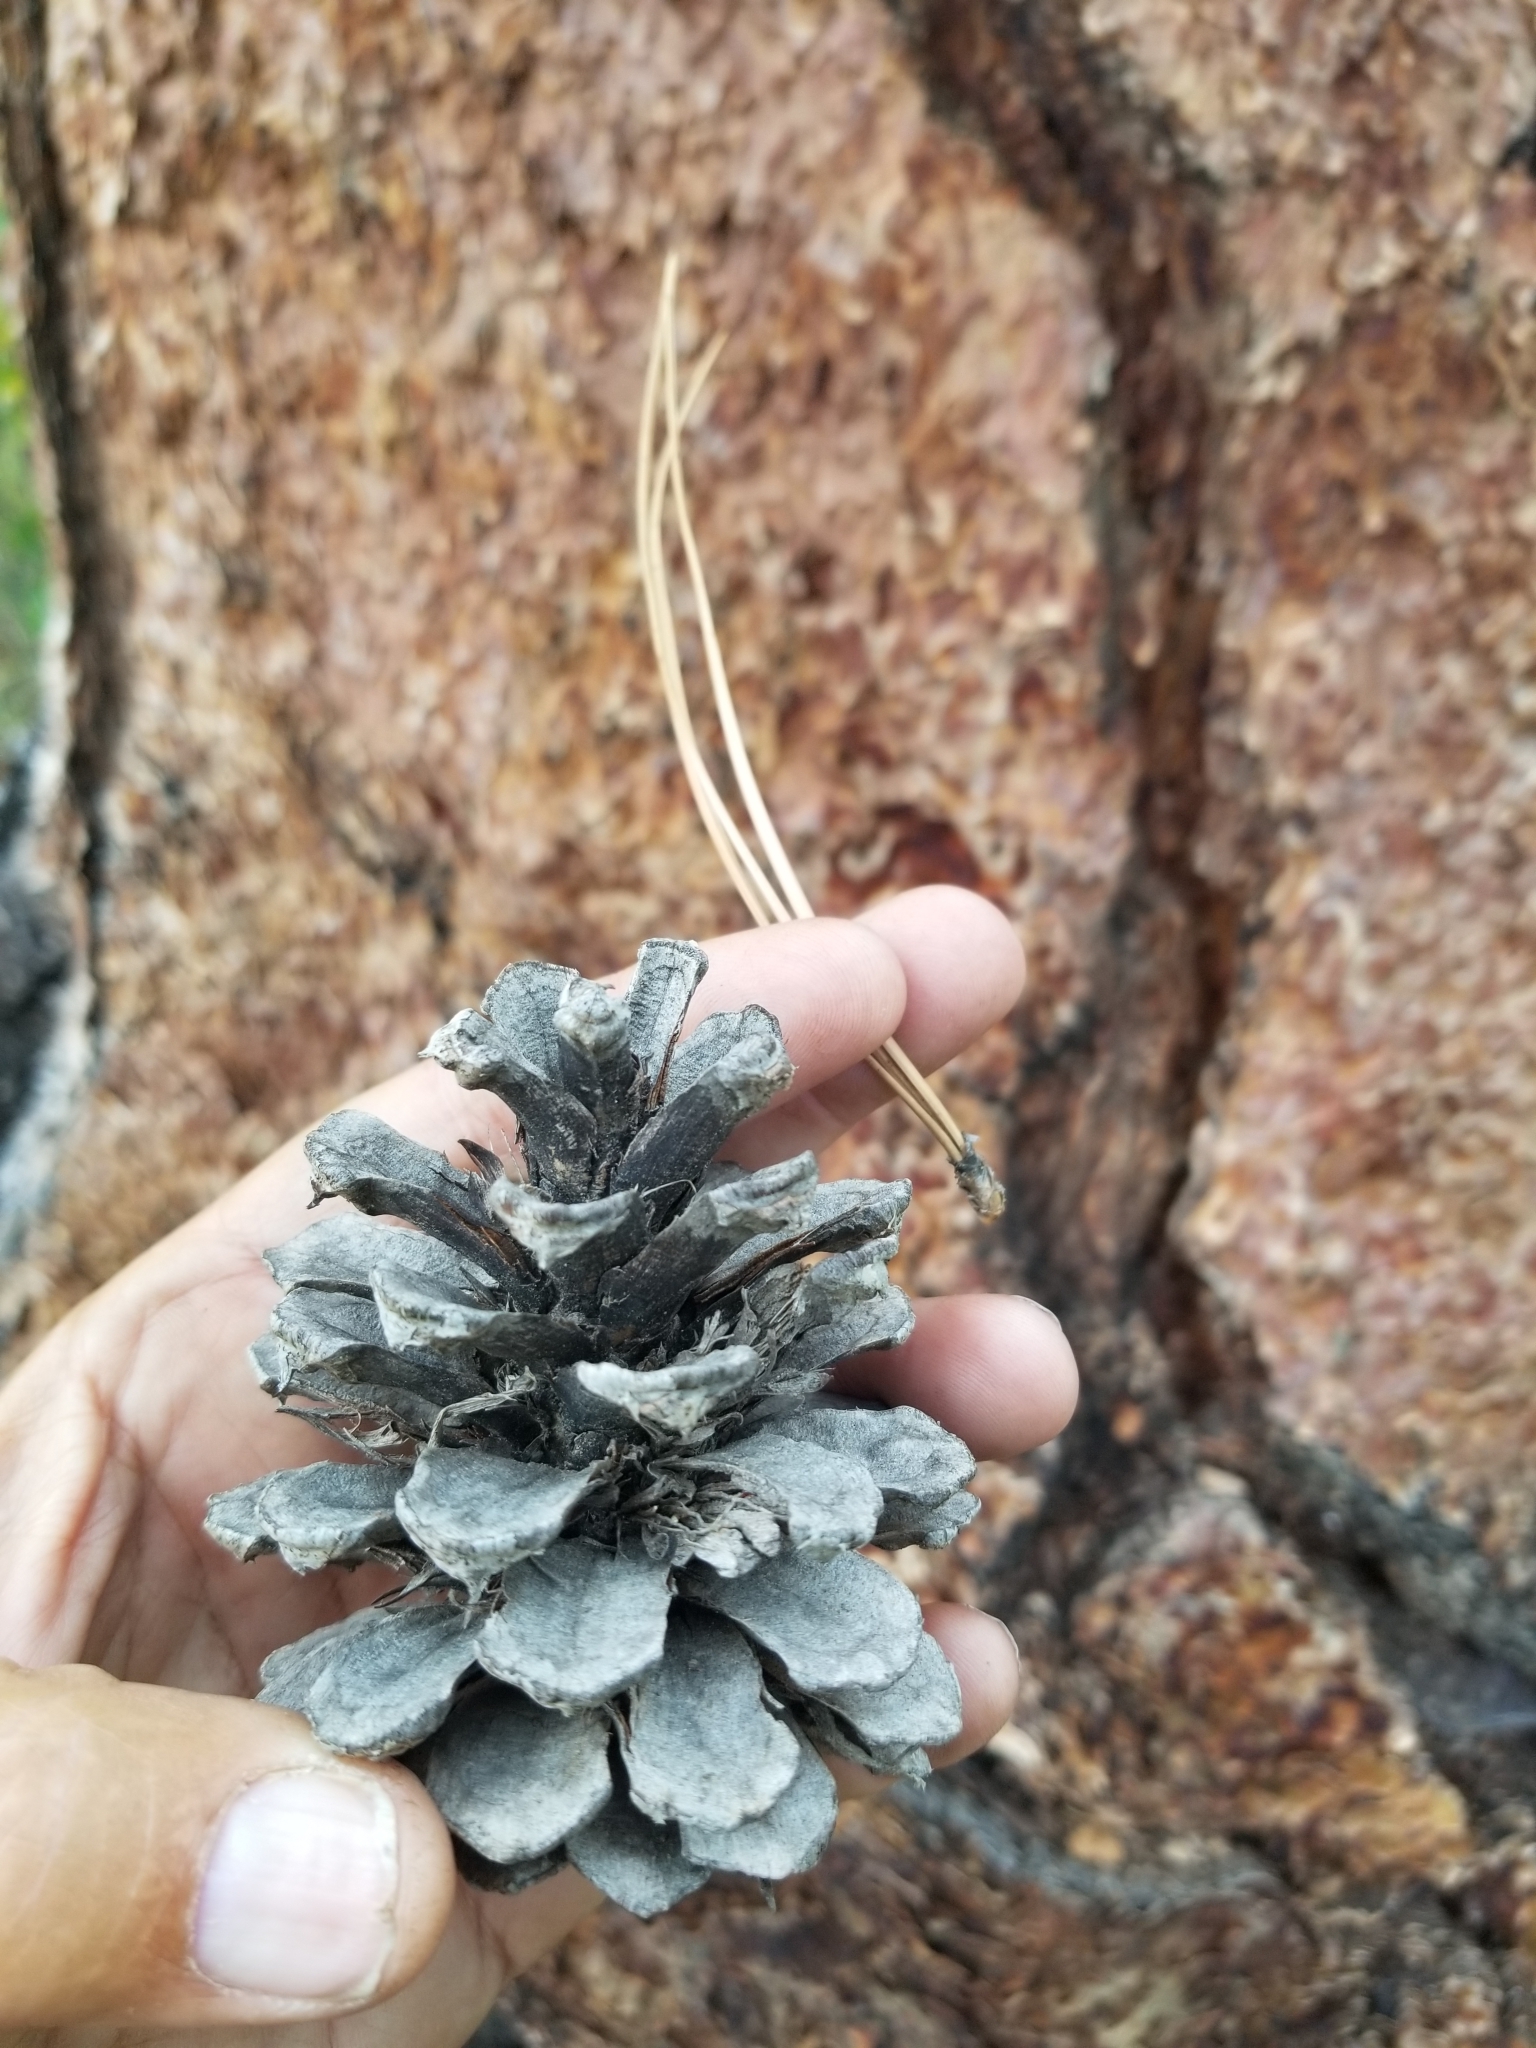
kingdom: Plantae
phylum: Tracheophyta
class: Pinopsida
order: Pinales
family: Pinaceae
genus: Pinus
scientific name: Pinus ponderosa
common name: Western yellow-pine
